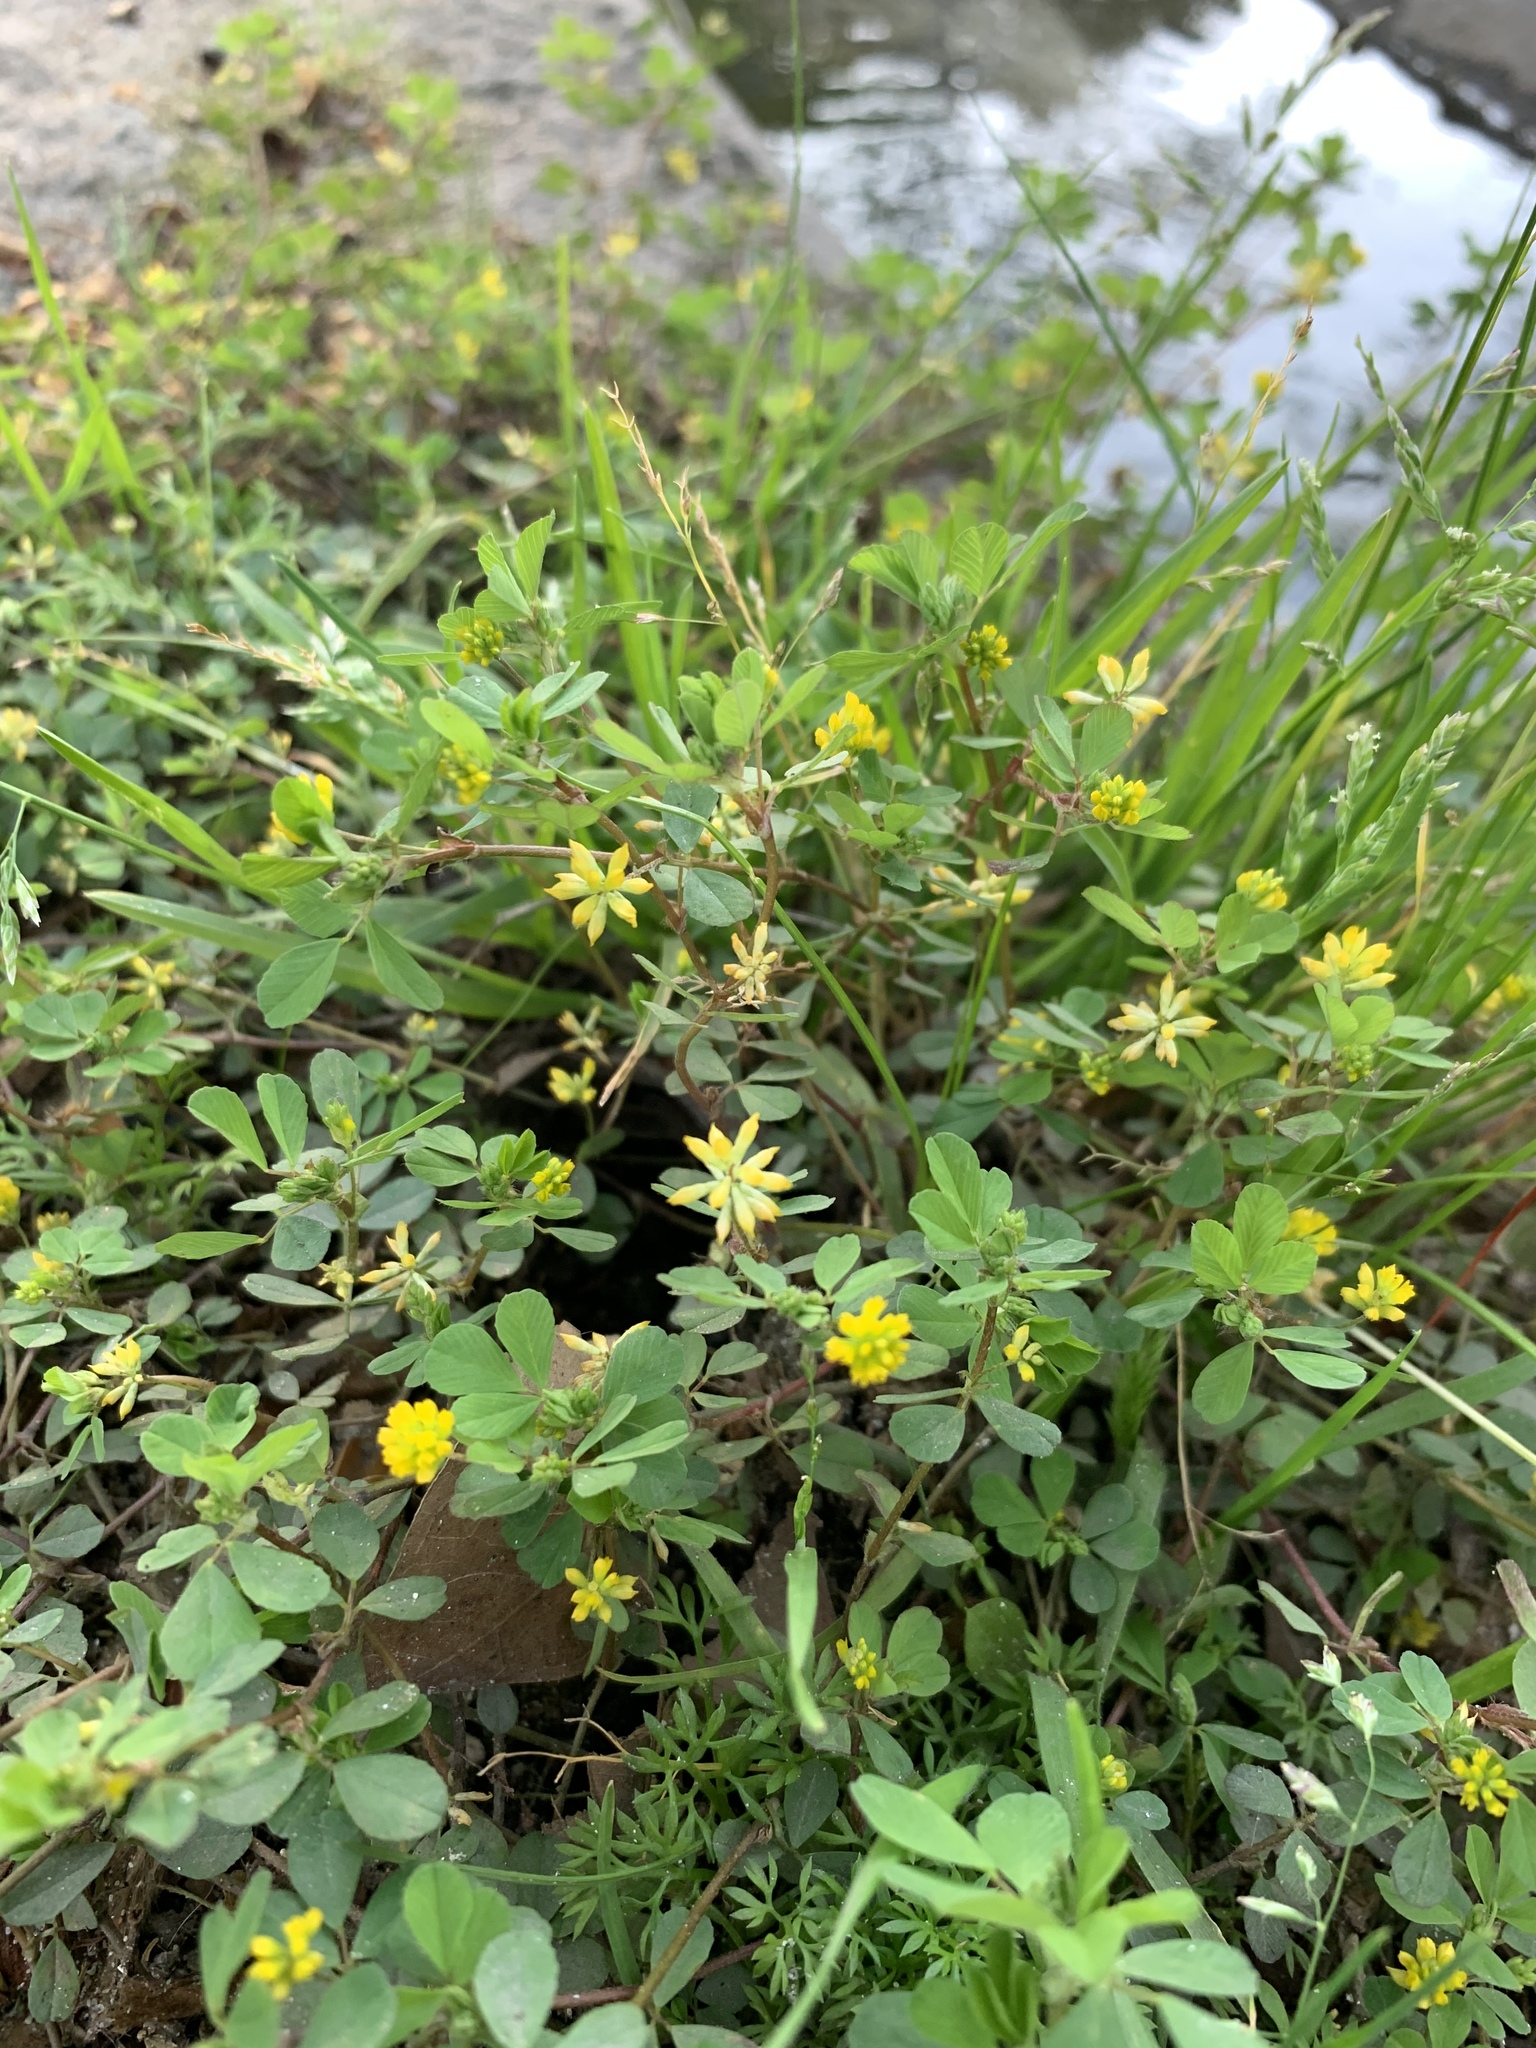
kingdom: Plantae
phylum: Tracheophyta
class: Magnoliopsida
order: Fabales
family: Fabaceae
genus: Trifolium
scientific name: Trifolium dubium
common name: Suckling clover
